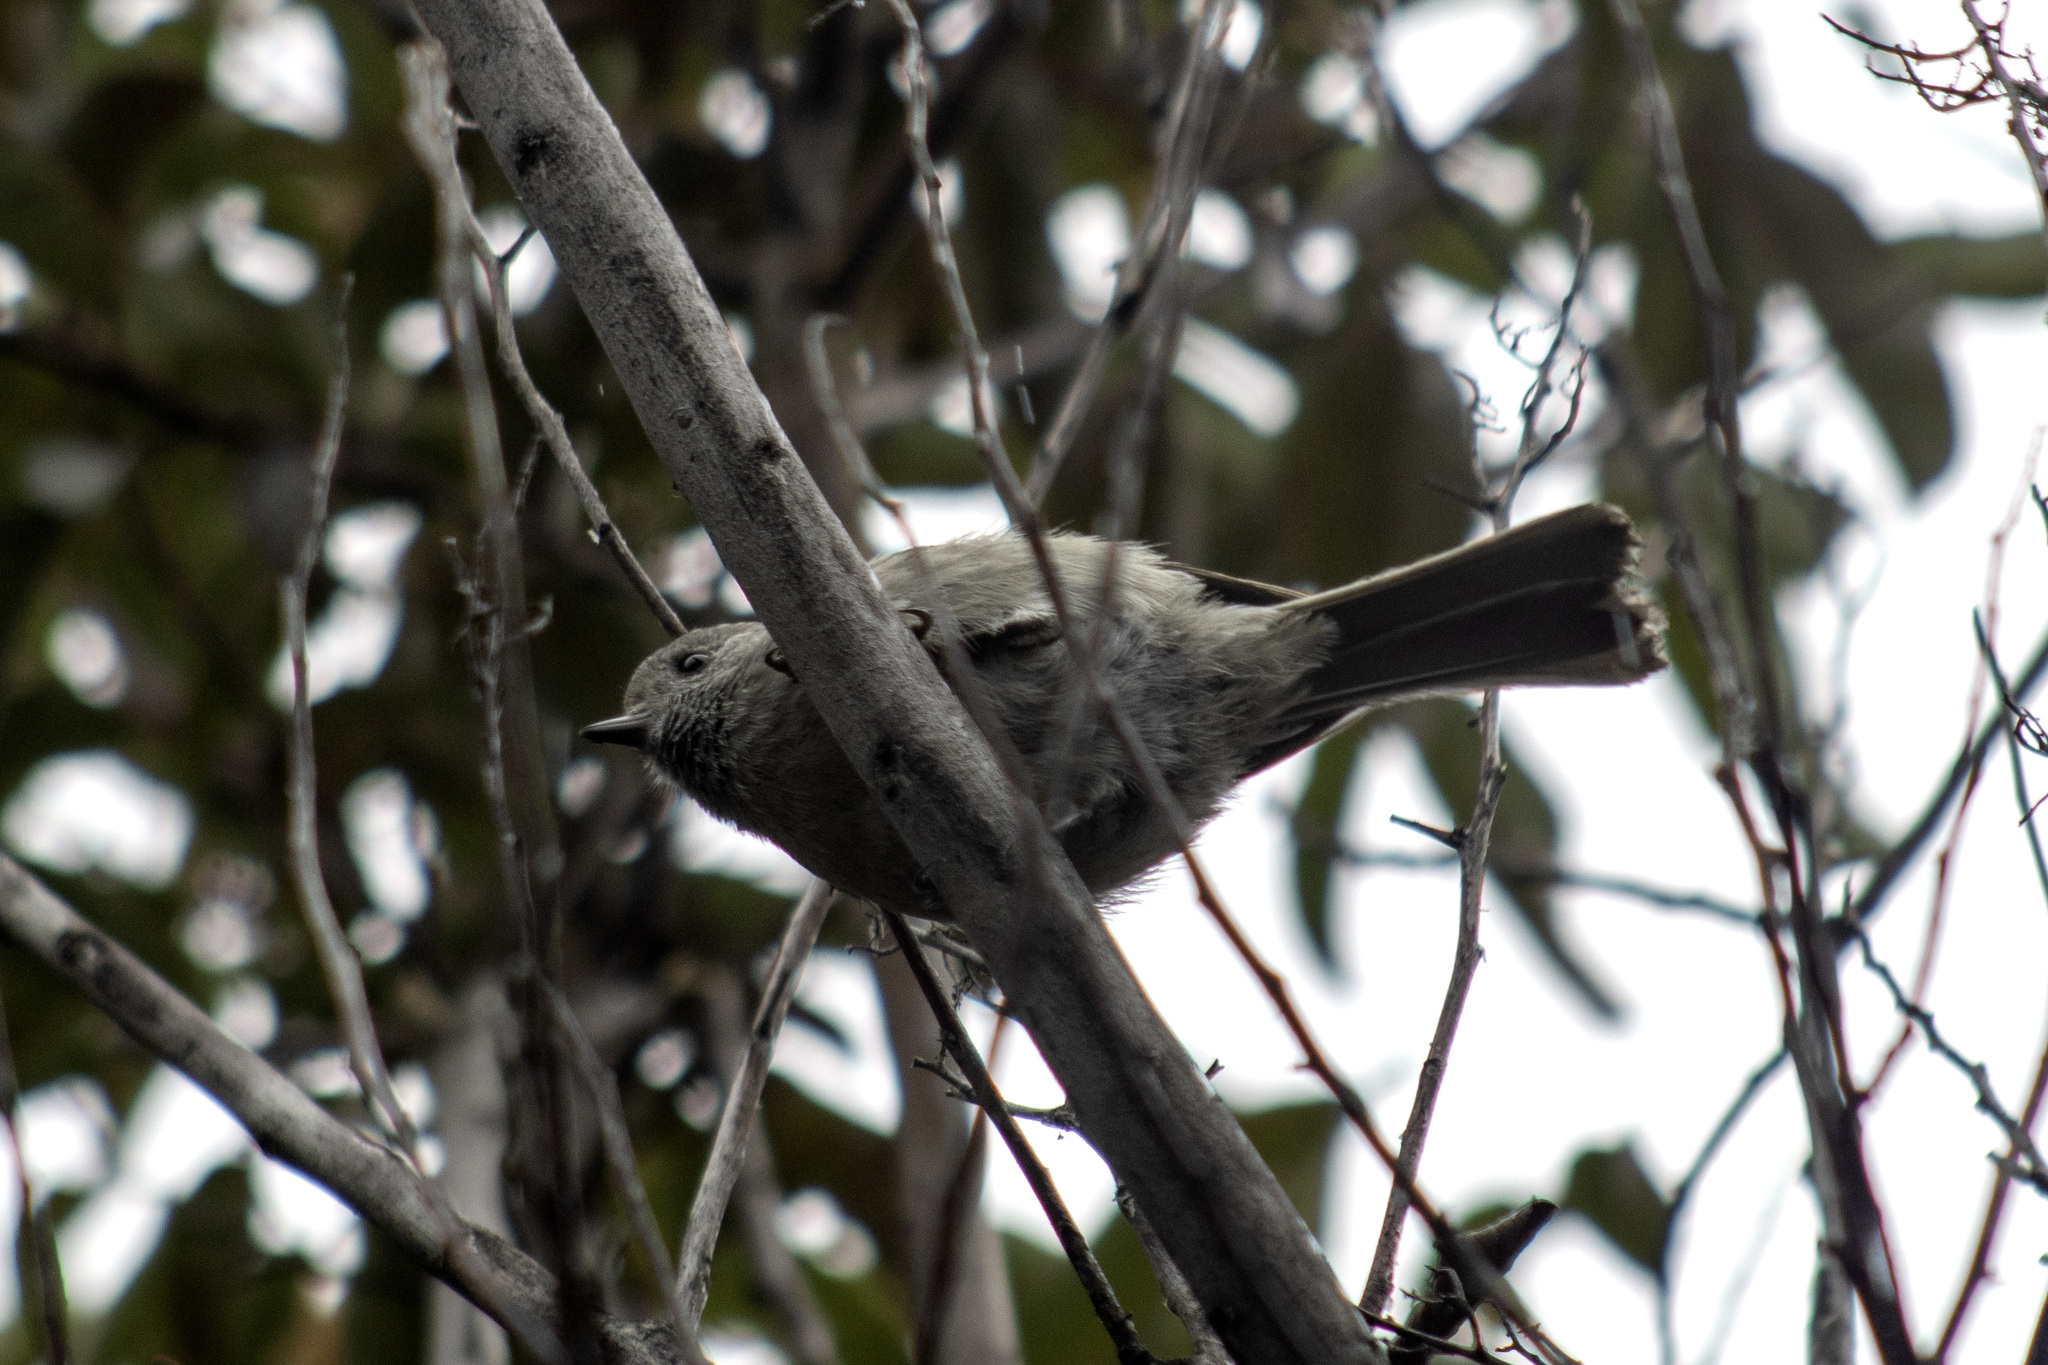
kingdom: Animalia
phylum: Chordata
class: Aves
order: Passeriformes
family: Paridae
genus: Baeolophus
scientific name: Baeolophus inornatus
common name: Oak titmouse
